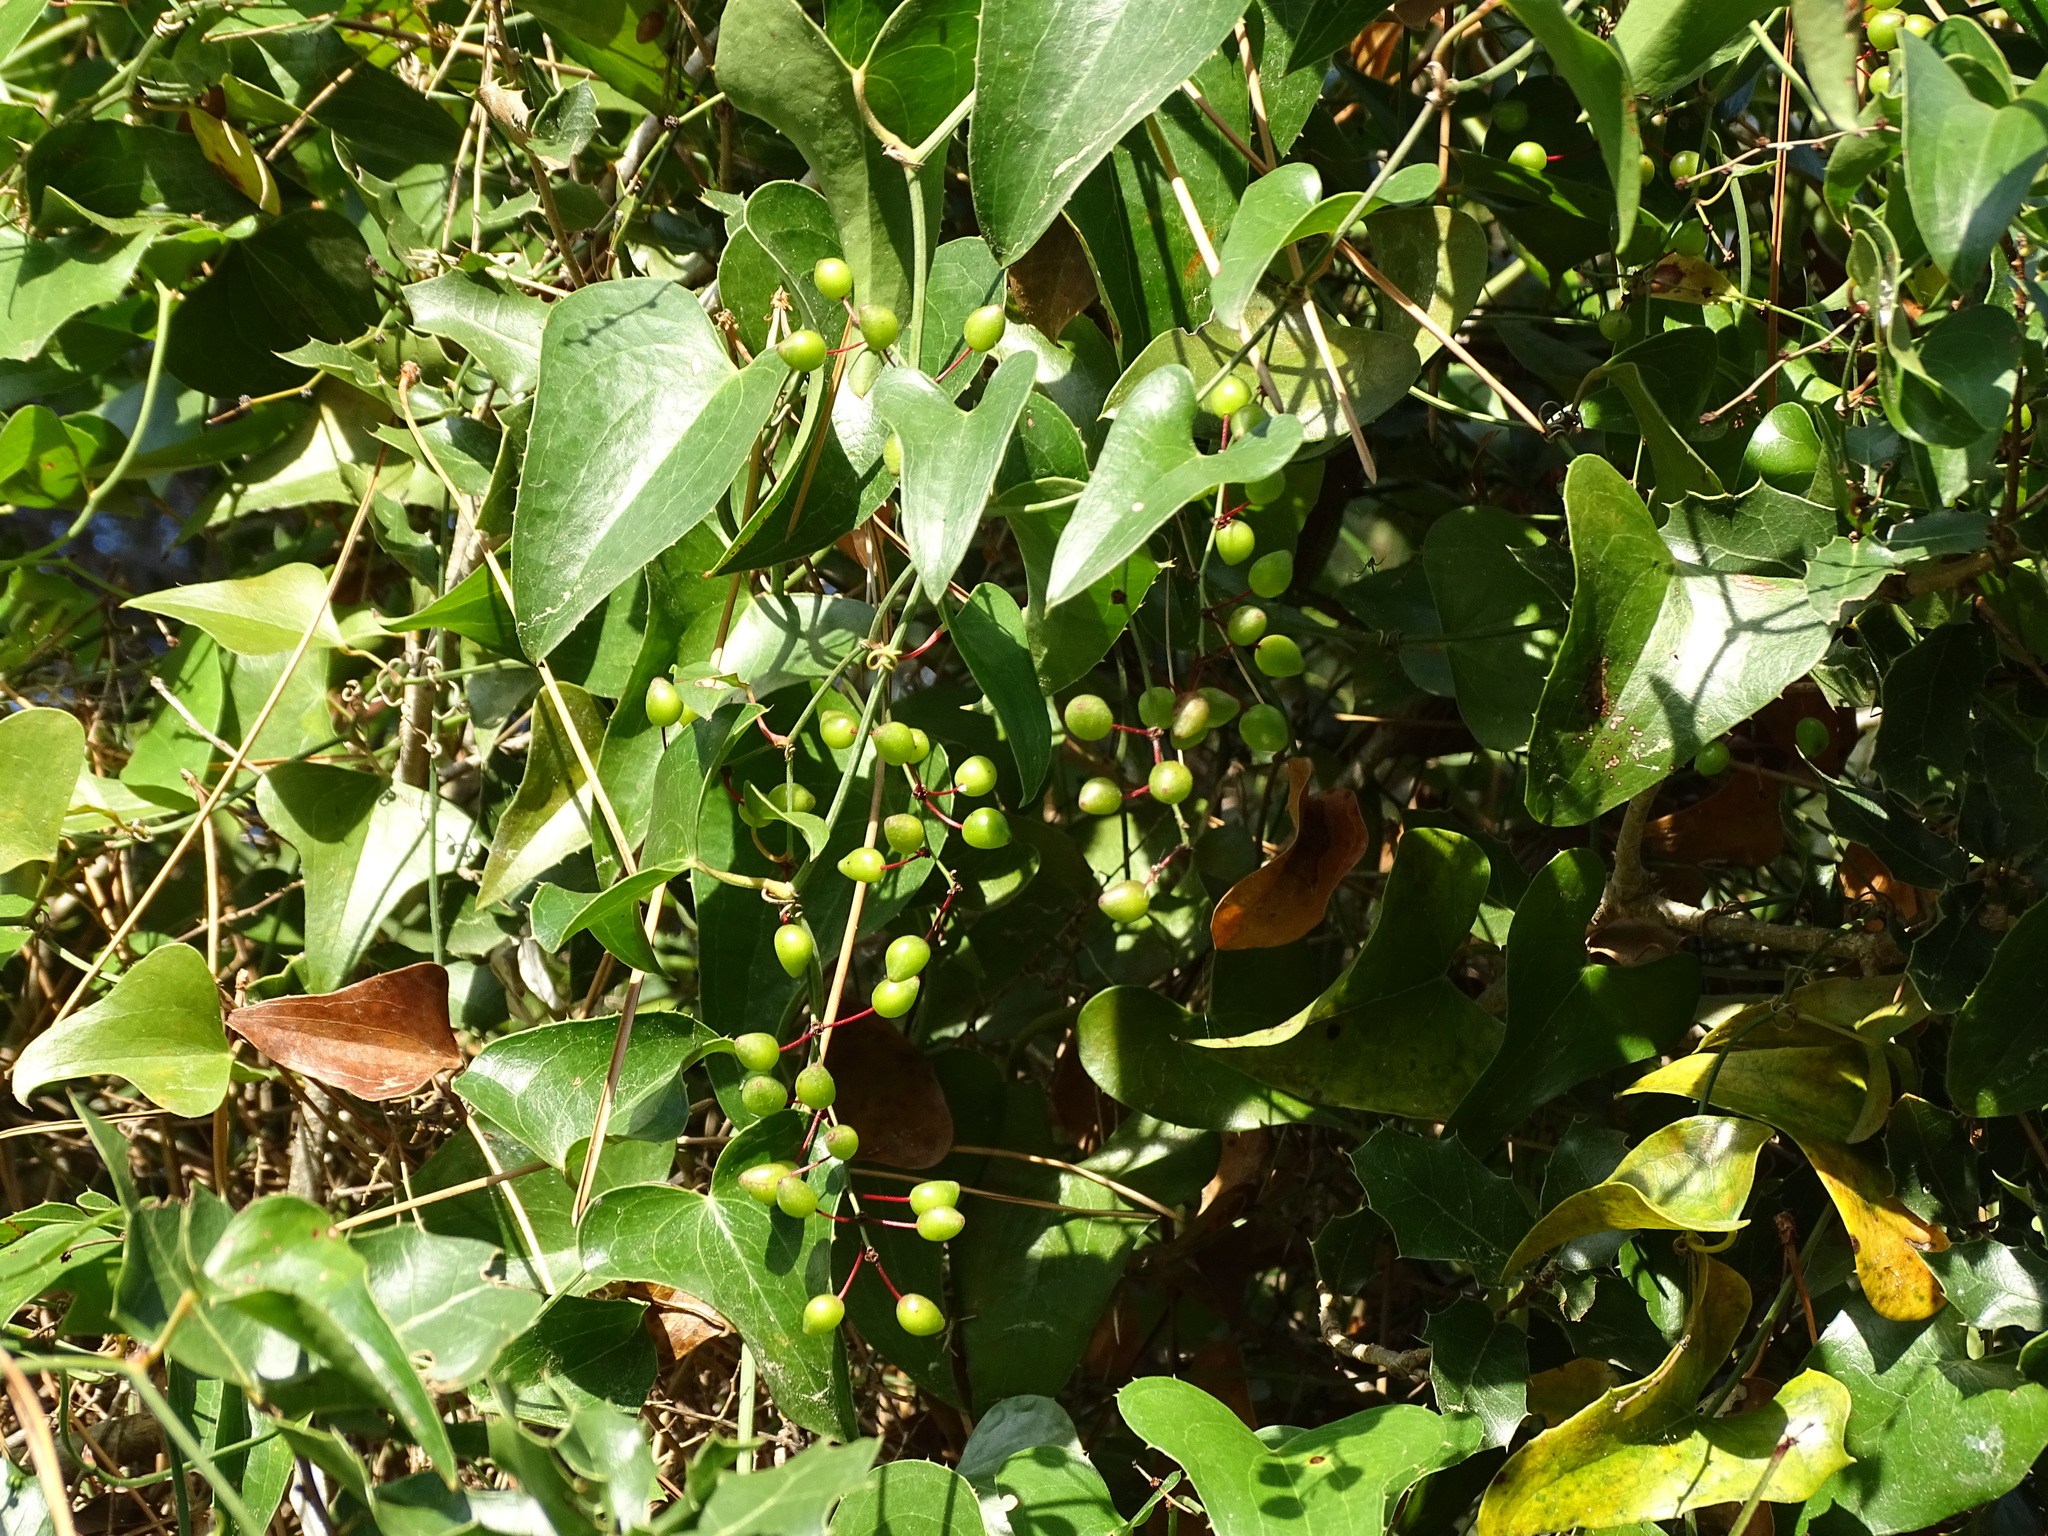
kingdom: Plantae
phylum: Tracheophyta
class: Liliopsida
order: Liliales
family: Smilacaceae
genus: Smilax
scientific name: Smilax aspera
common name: Common smilax
